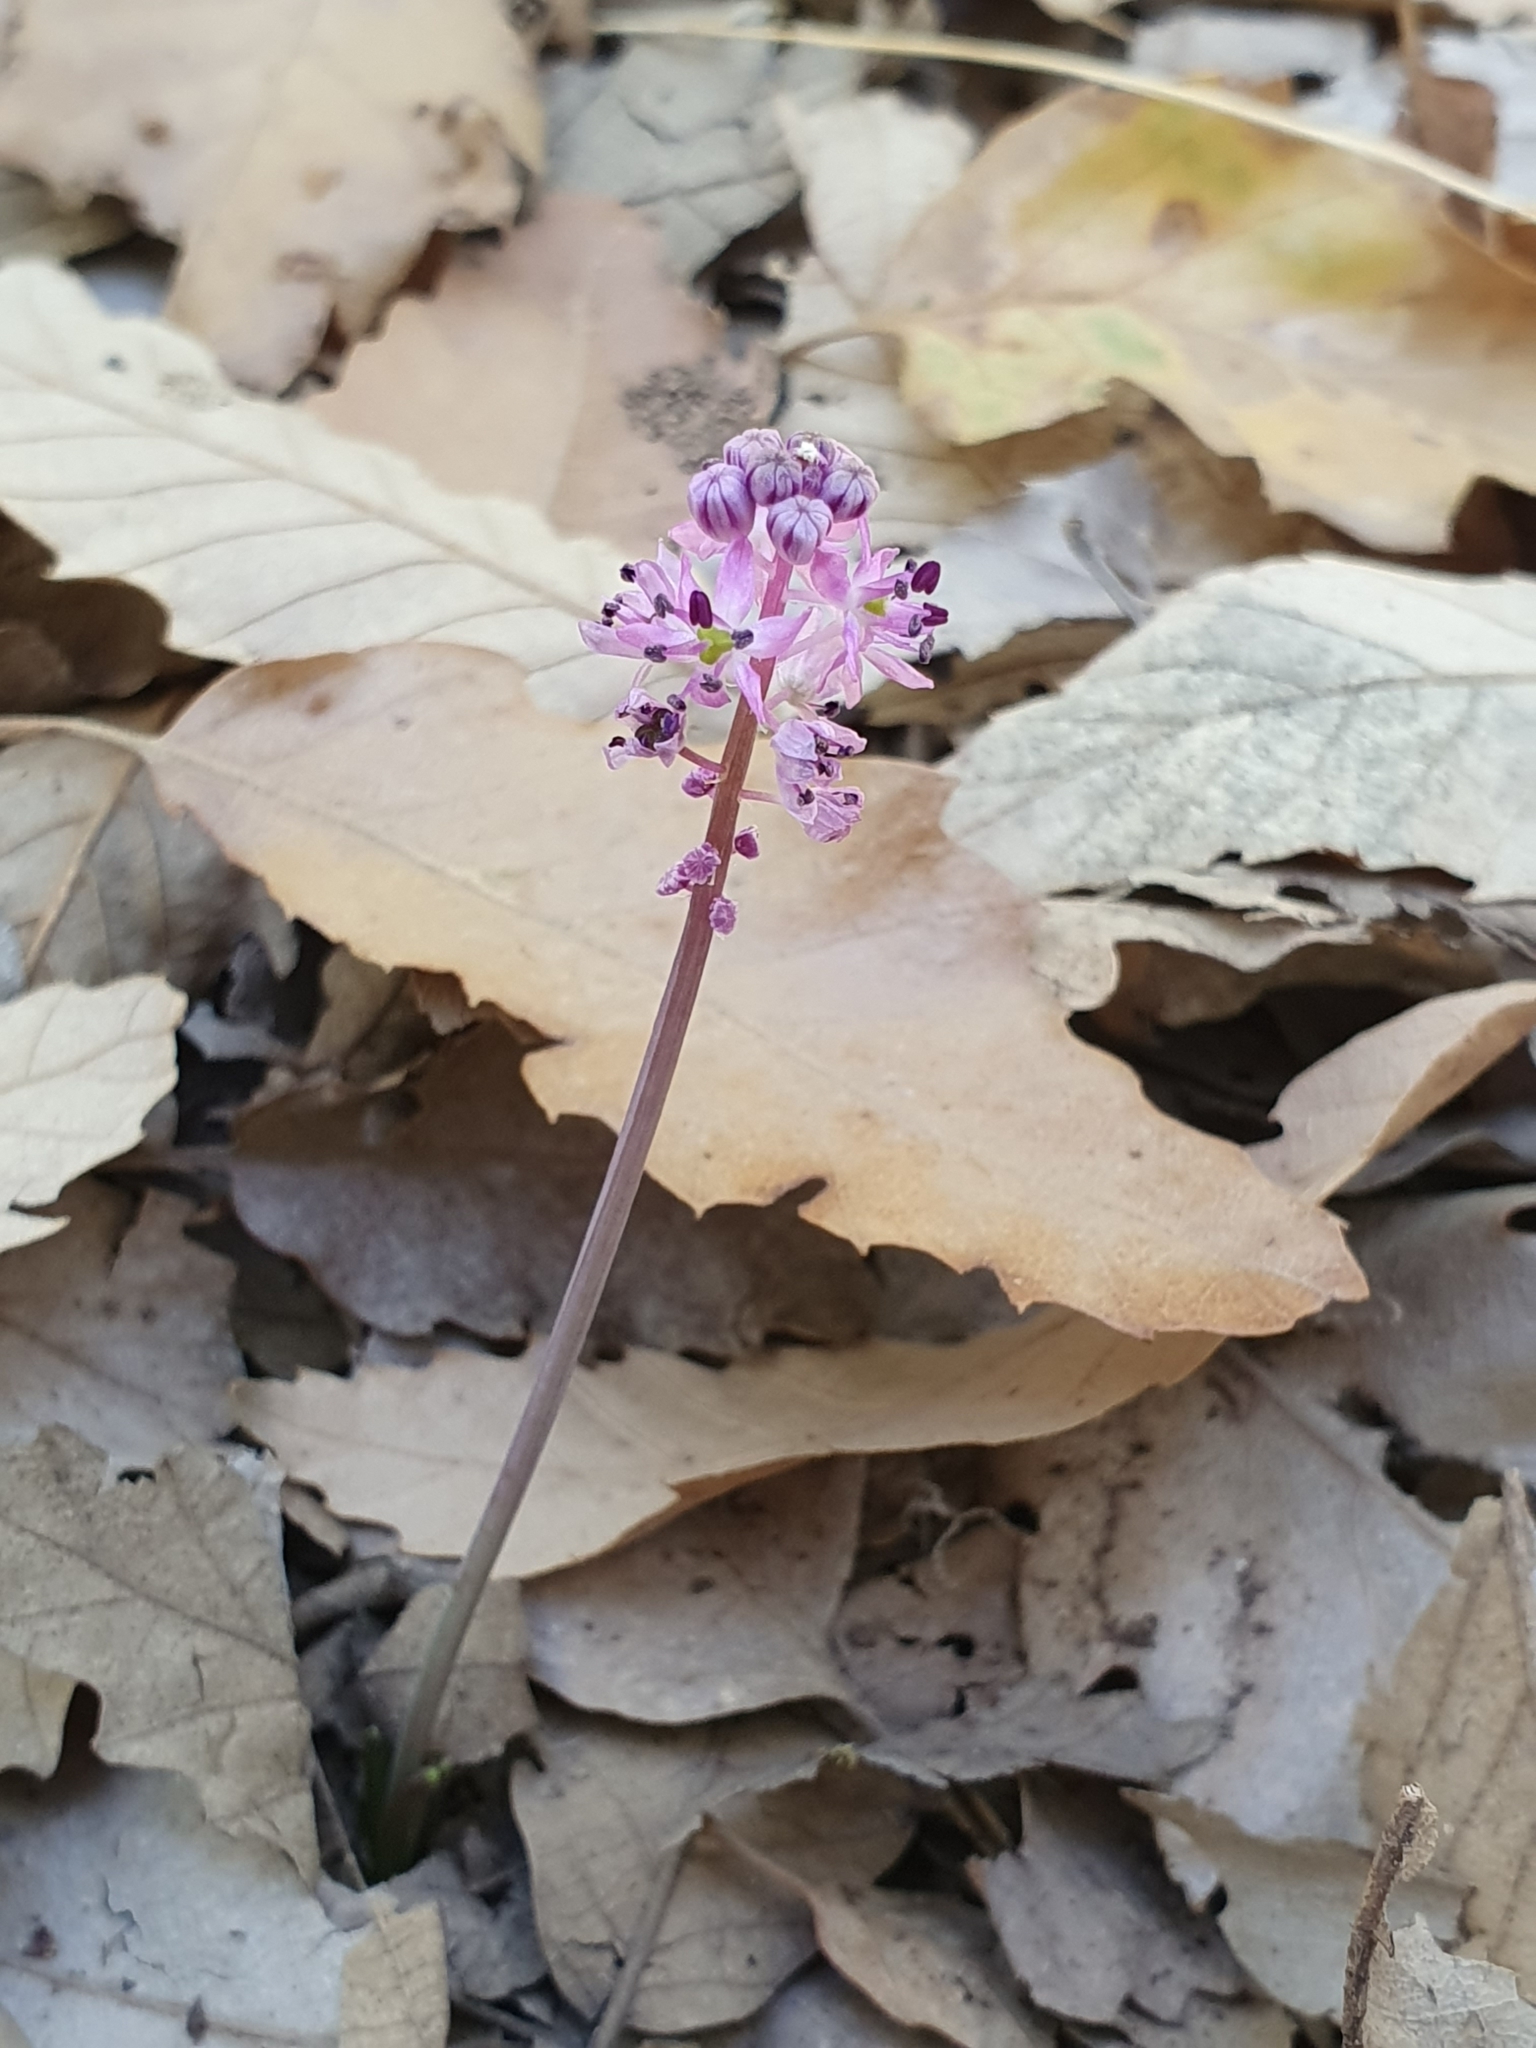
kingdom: Plantae
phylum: Tracheophyta
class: Liliopsida
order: Asparagales
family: Asparagaceae
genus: Barnardia
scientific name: Barnardia numidica
